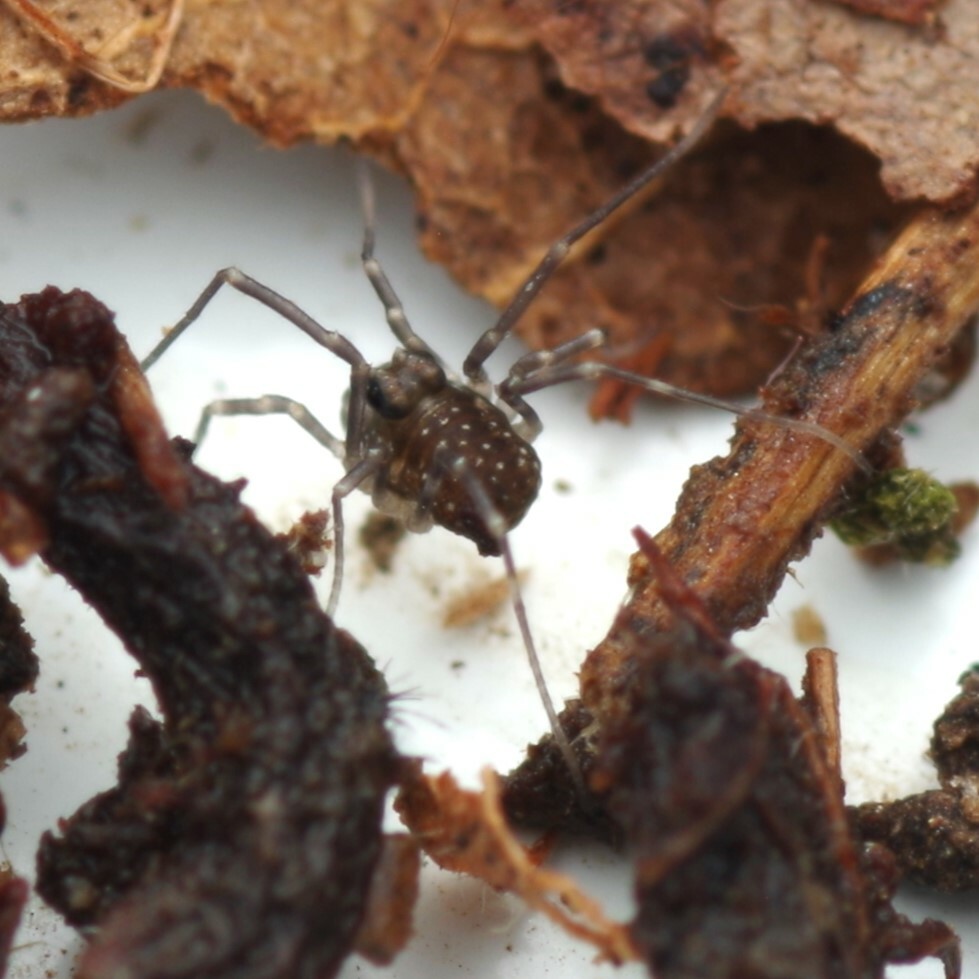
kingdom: Animalia
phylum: Arthropoda
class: Arachnida
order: Opiliones
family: Phalangiidae
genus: Rilaena
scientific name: Rilaena triangularis
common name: Spring harvestman
